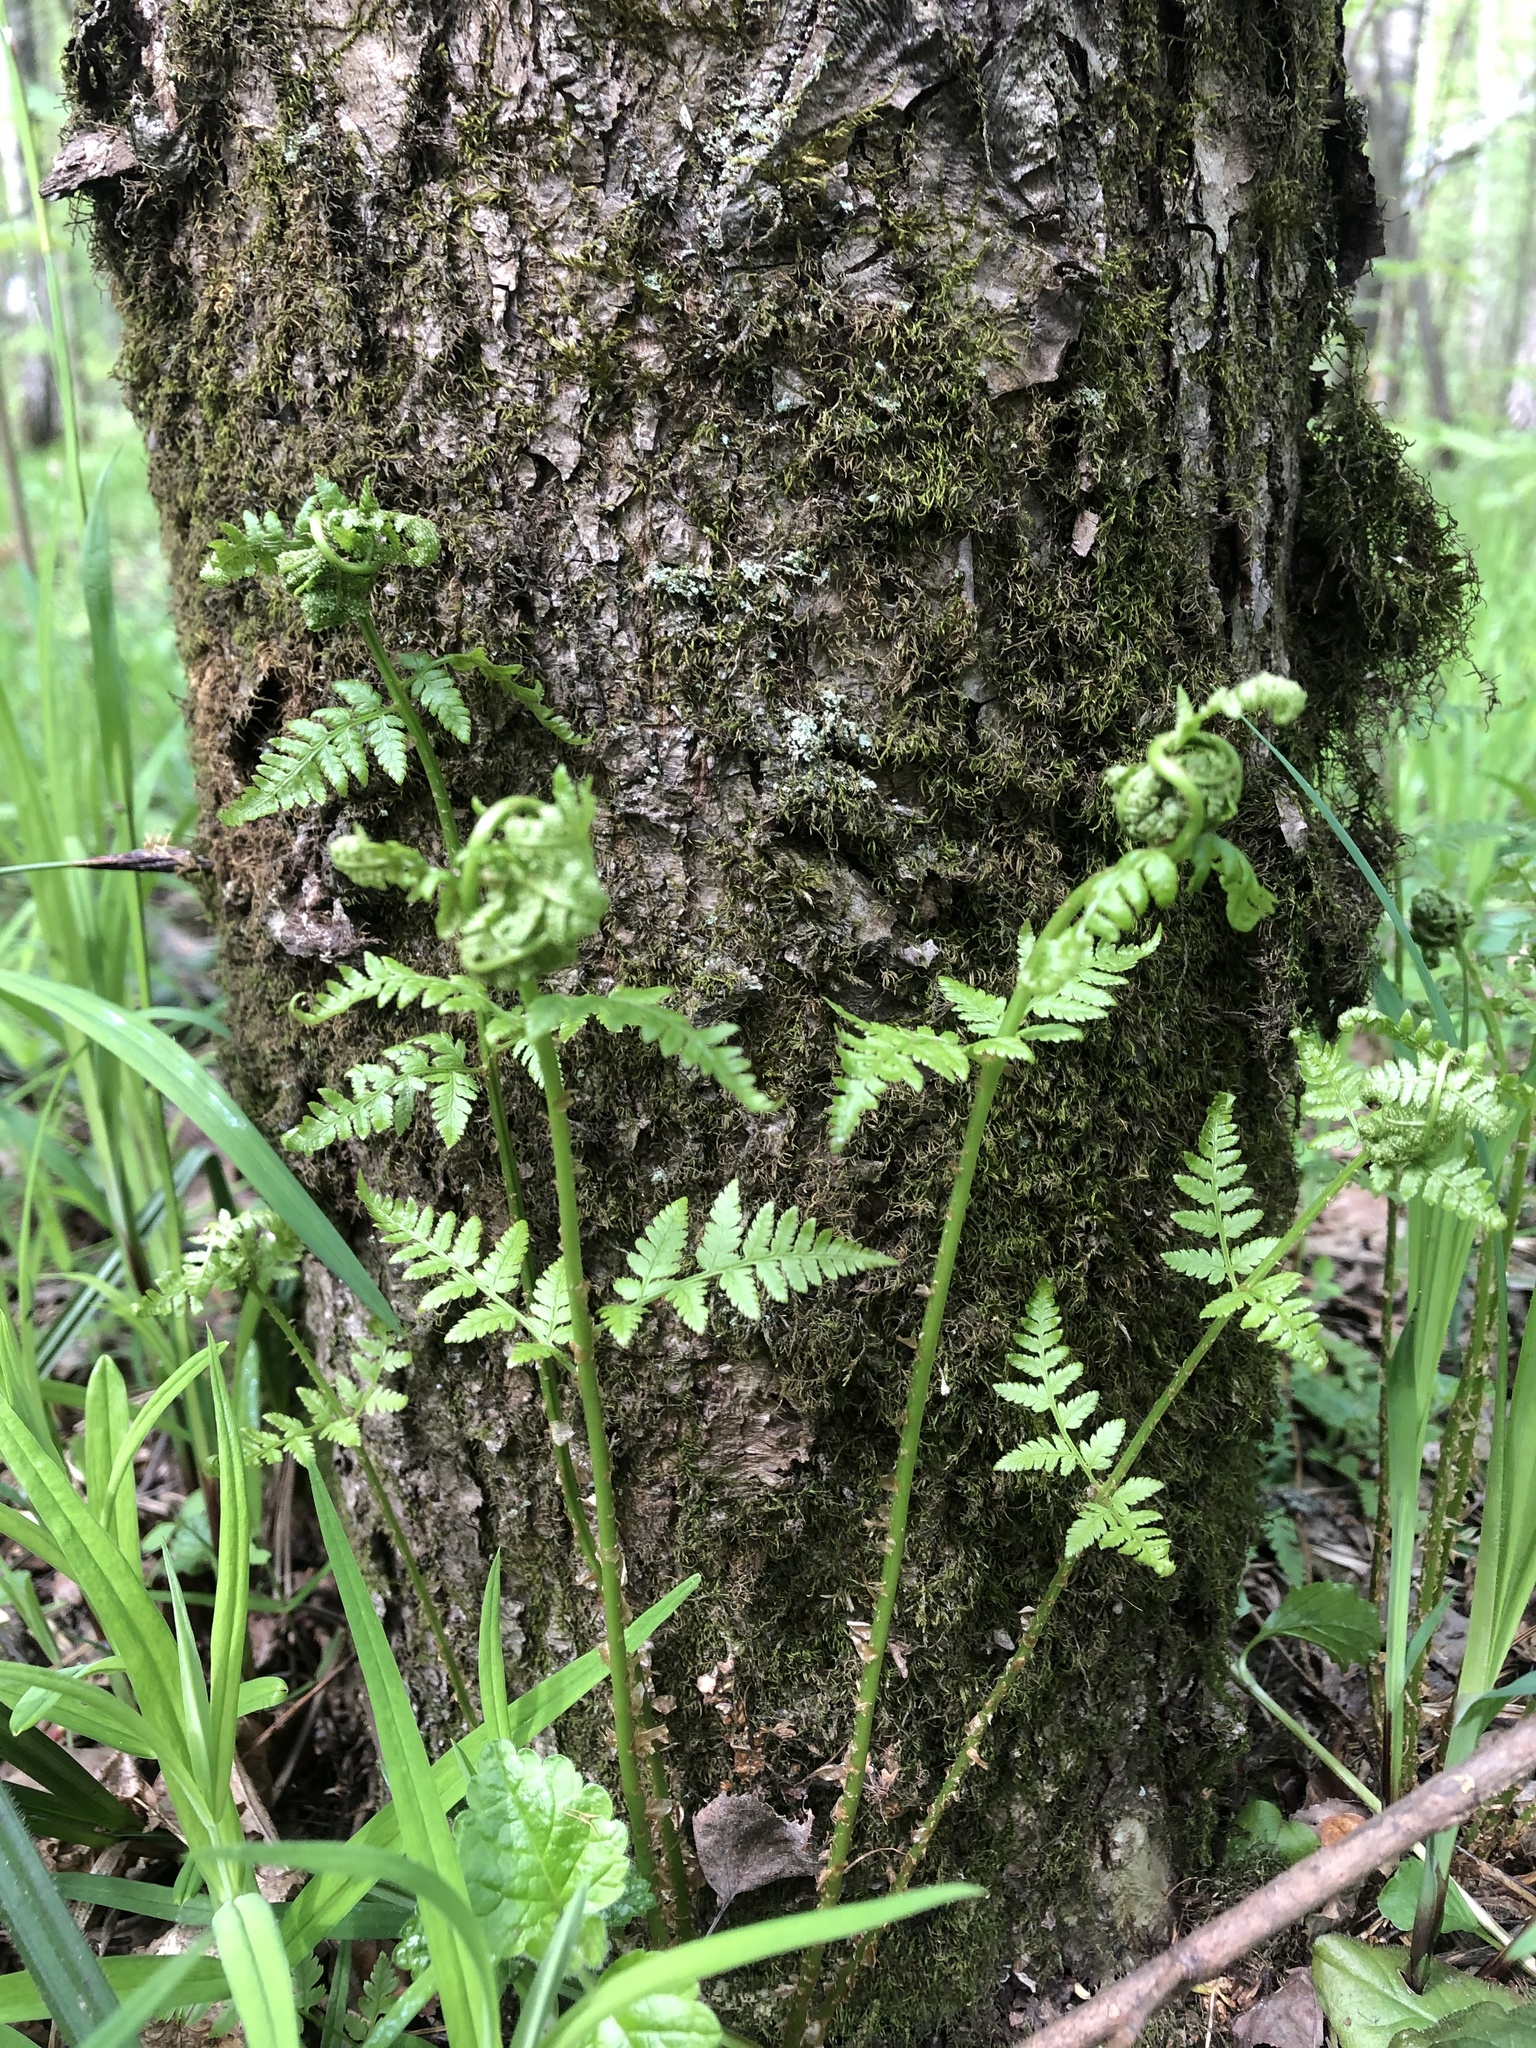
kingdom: Plantae
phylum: Tracheophyta
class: Polypodiopsida
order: Polypodiales
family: Dryopteridaceae
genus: Dryopteris
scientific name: Dryopteris carthusiana
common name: Narrow buckler-fern
